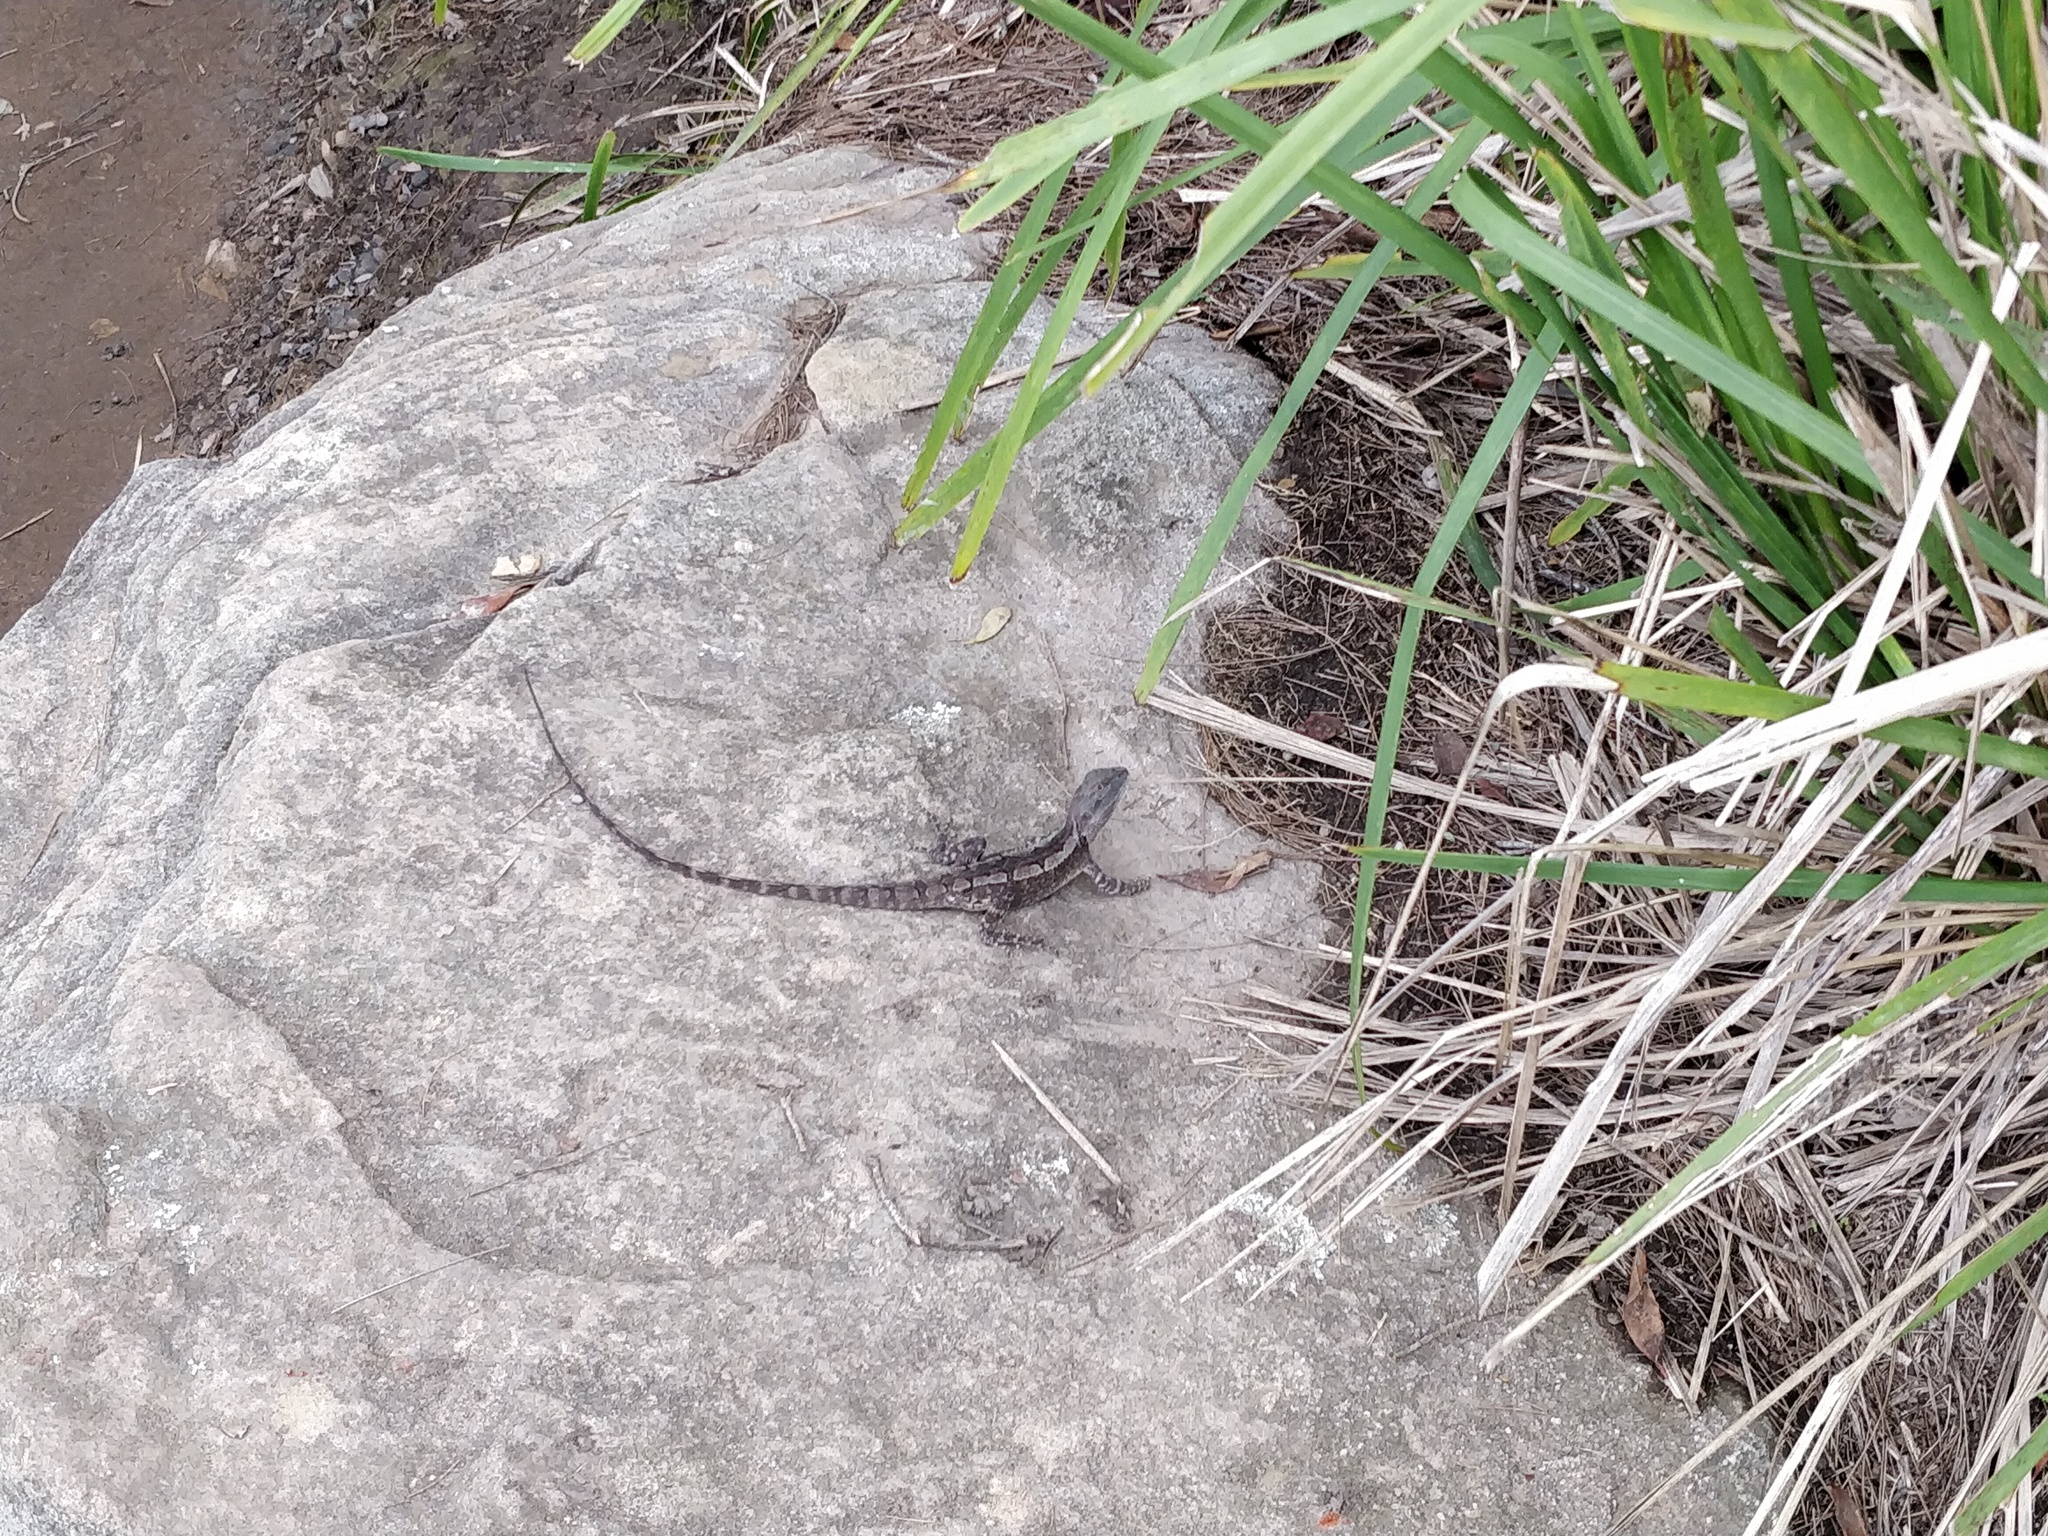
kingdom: Animalia
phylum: Chordata
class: Squamata
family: Agamidae
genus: Amphibolurus
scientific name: Amphibolurus muricatus
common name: Jacky lizard
